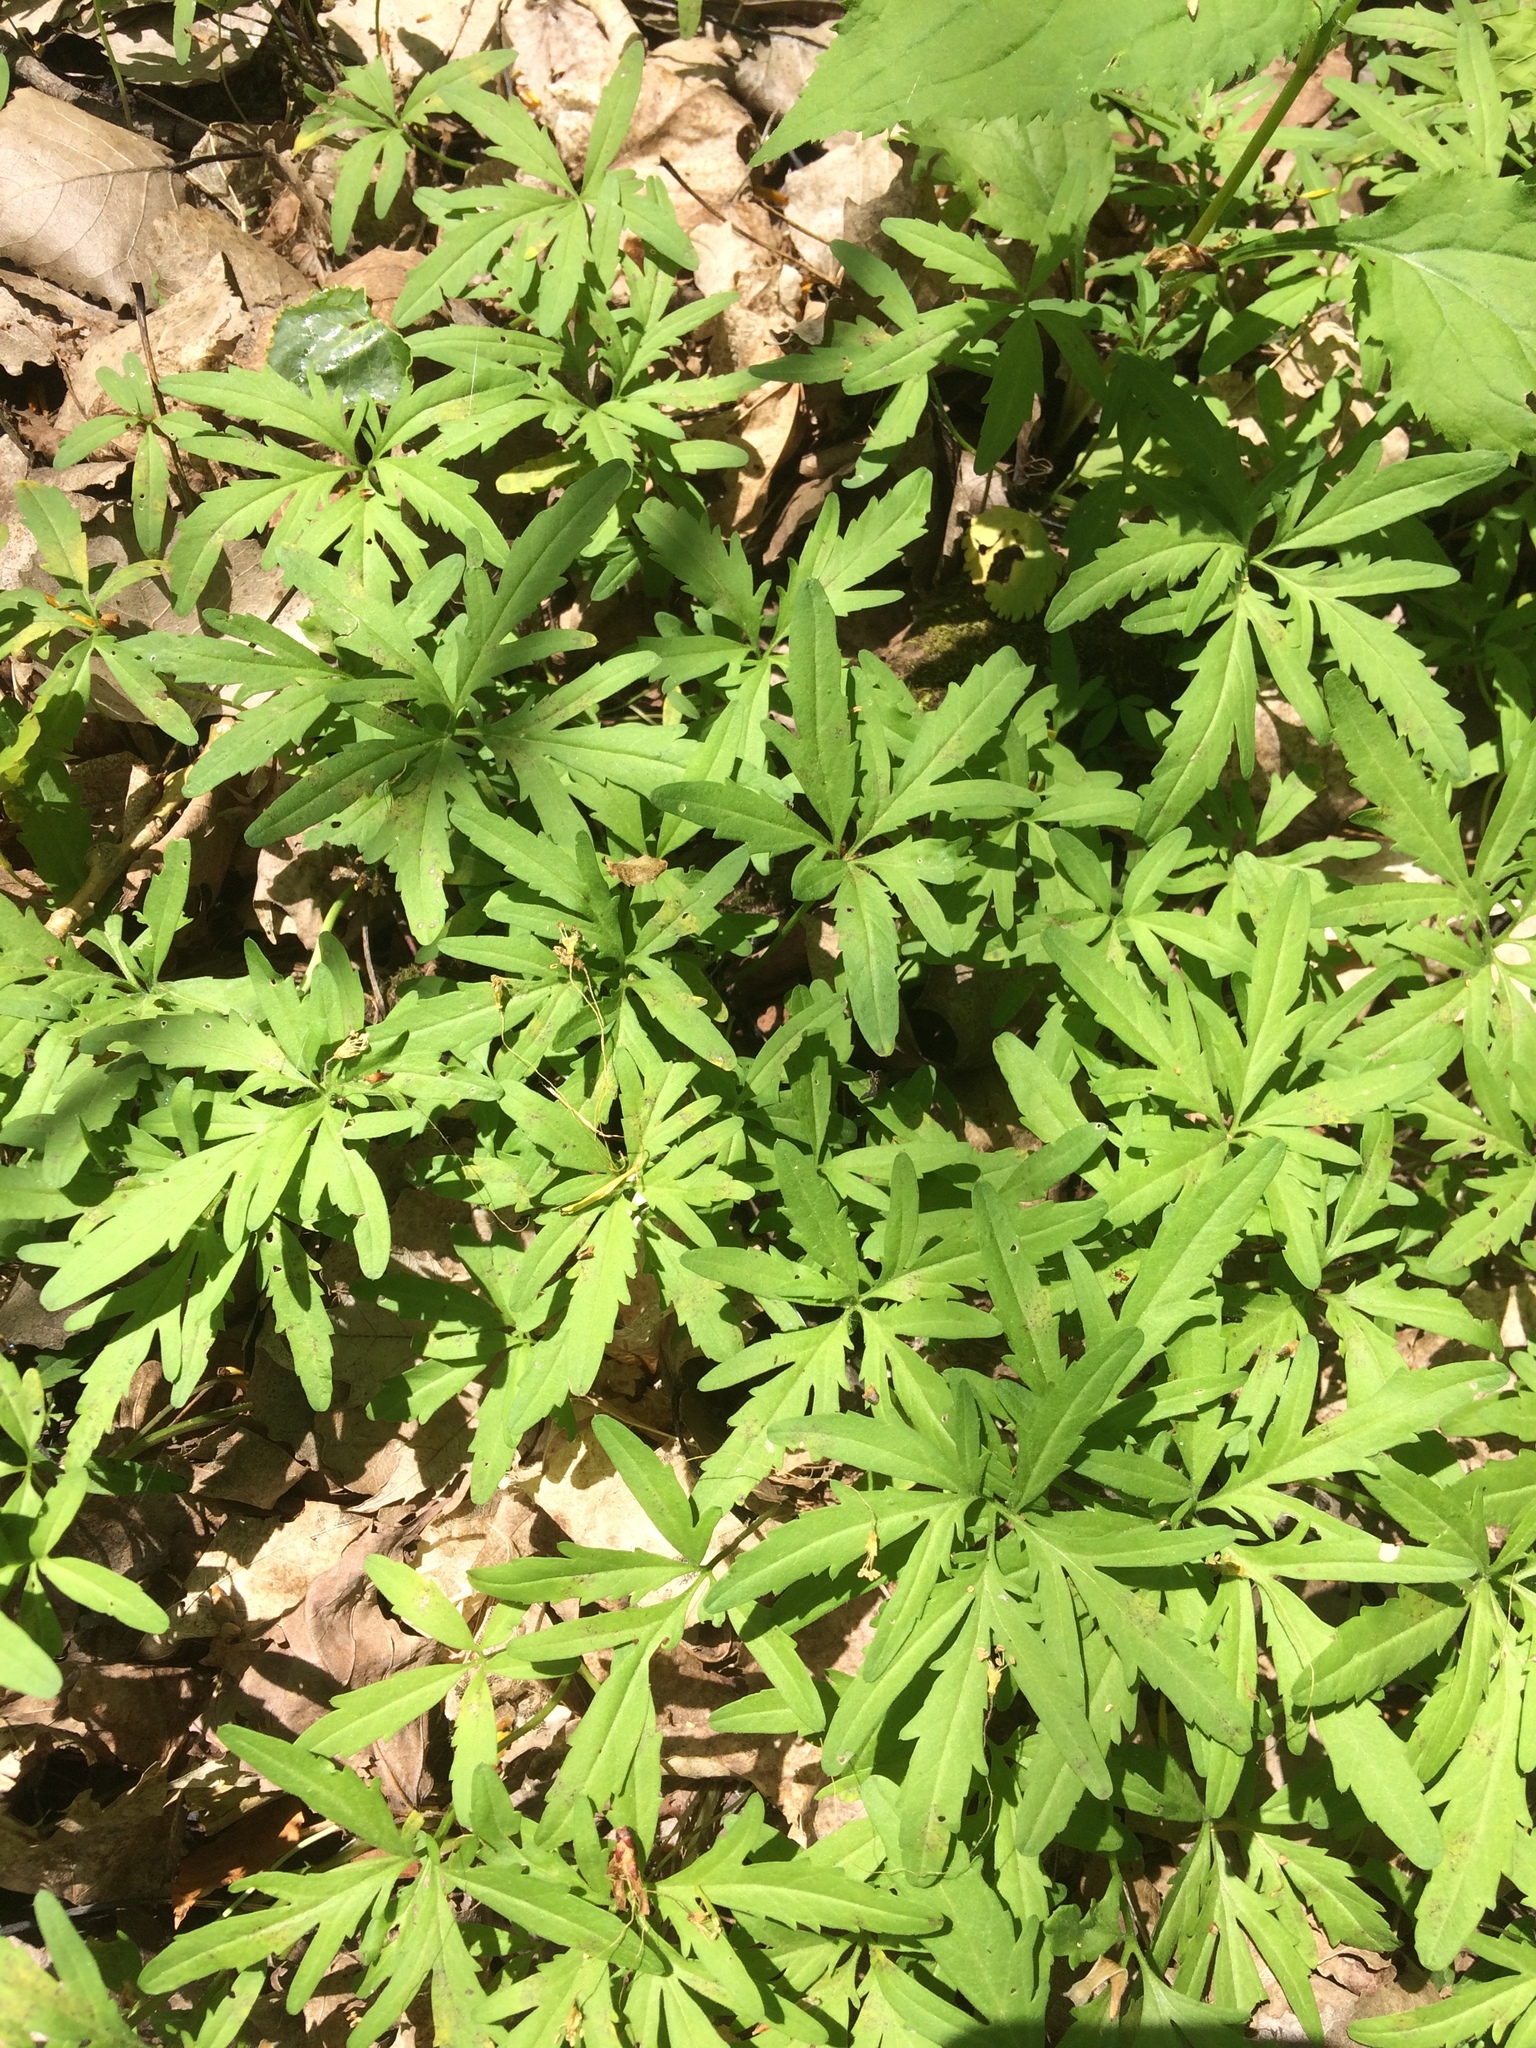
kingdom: Plantae
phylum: Tracheophyta
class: Magnoliopsida
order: Brassicales
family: Brassicaceae
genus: Cardamine
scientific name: Cardamine concatenata
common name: Cut-leaf toothcup
